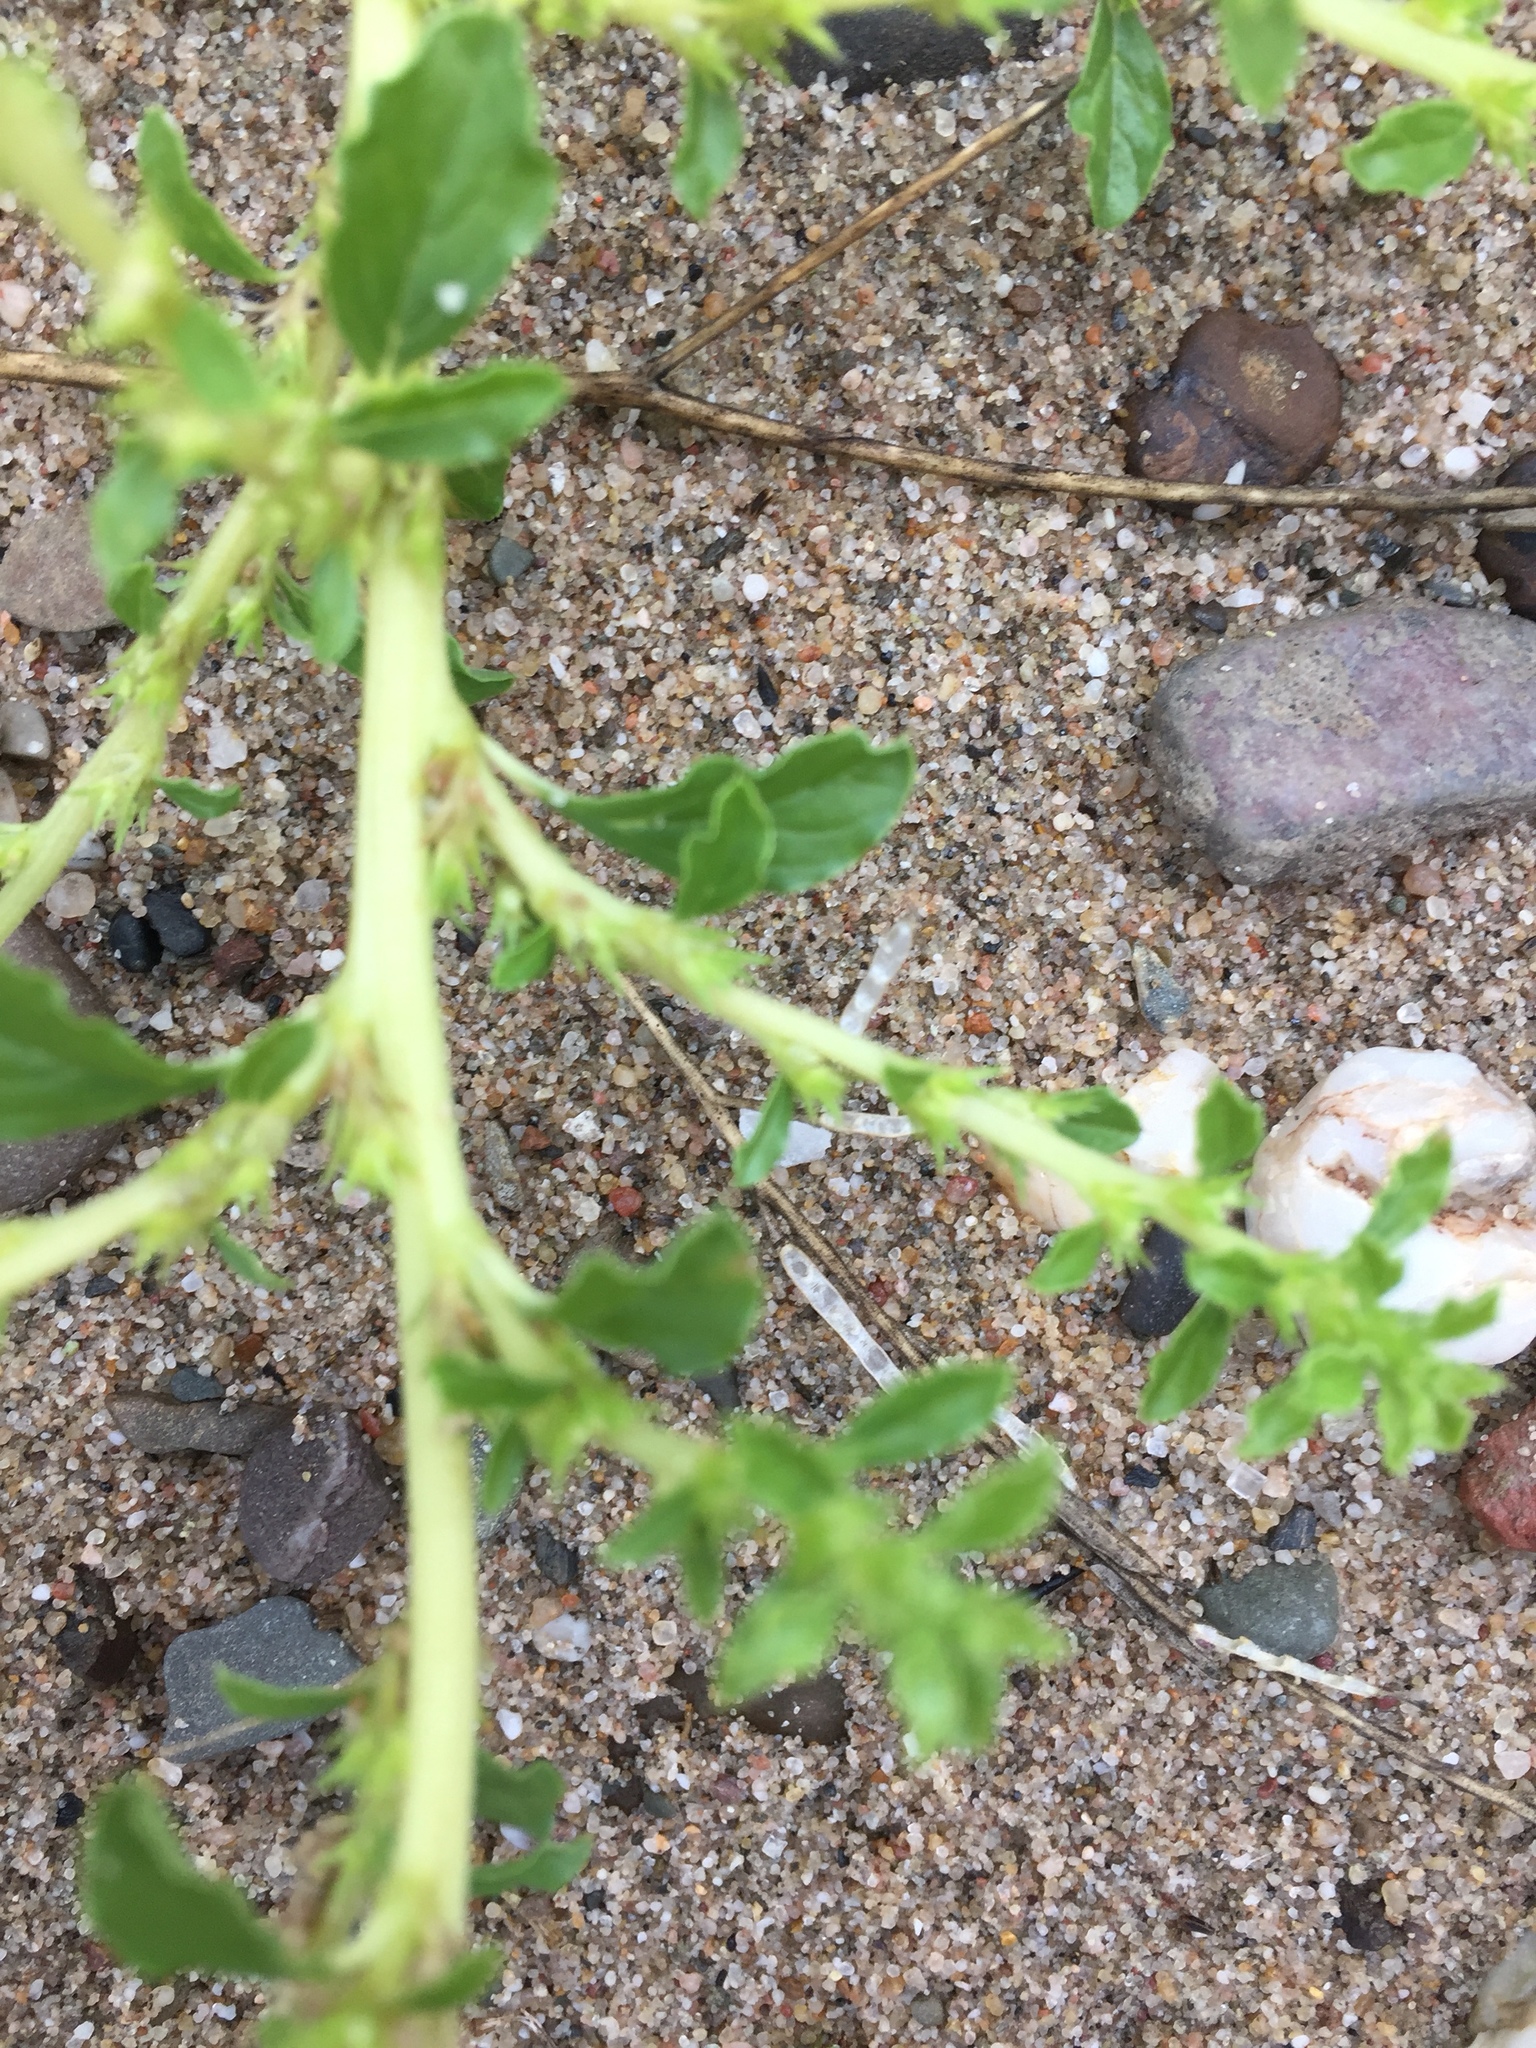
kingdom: Plantae
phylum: Tracheophyta
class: Magnoliopsida
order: Caryophyllales
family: Amaranthaceae
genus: Amaranthus
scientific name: Amaranthus albus
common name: White pigweed
